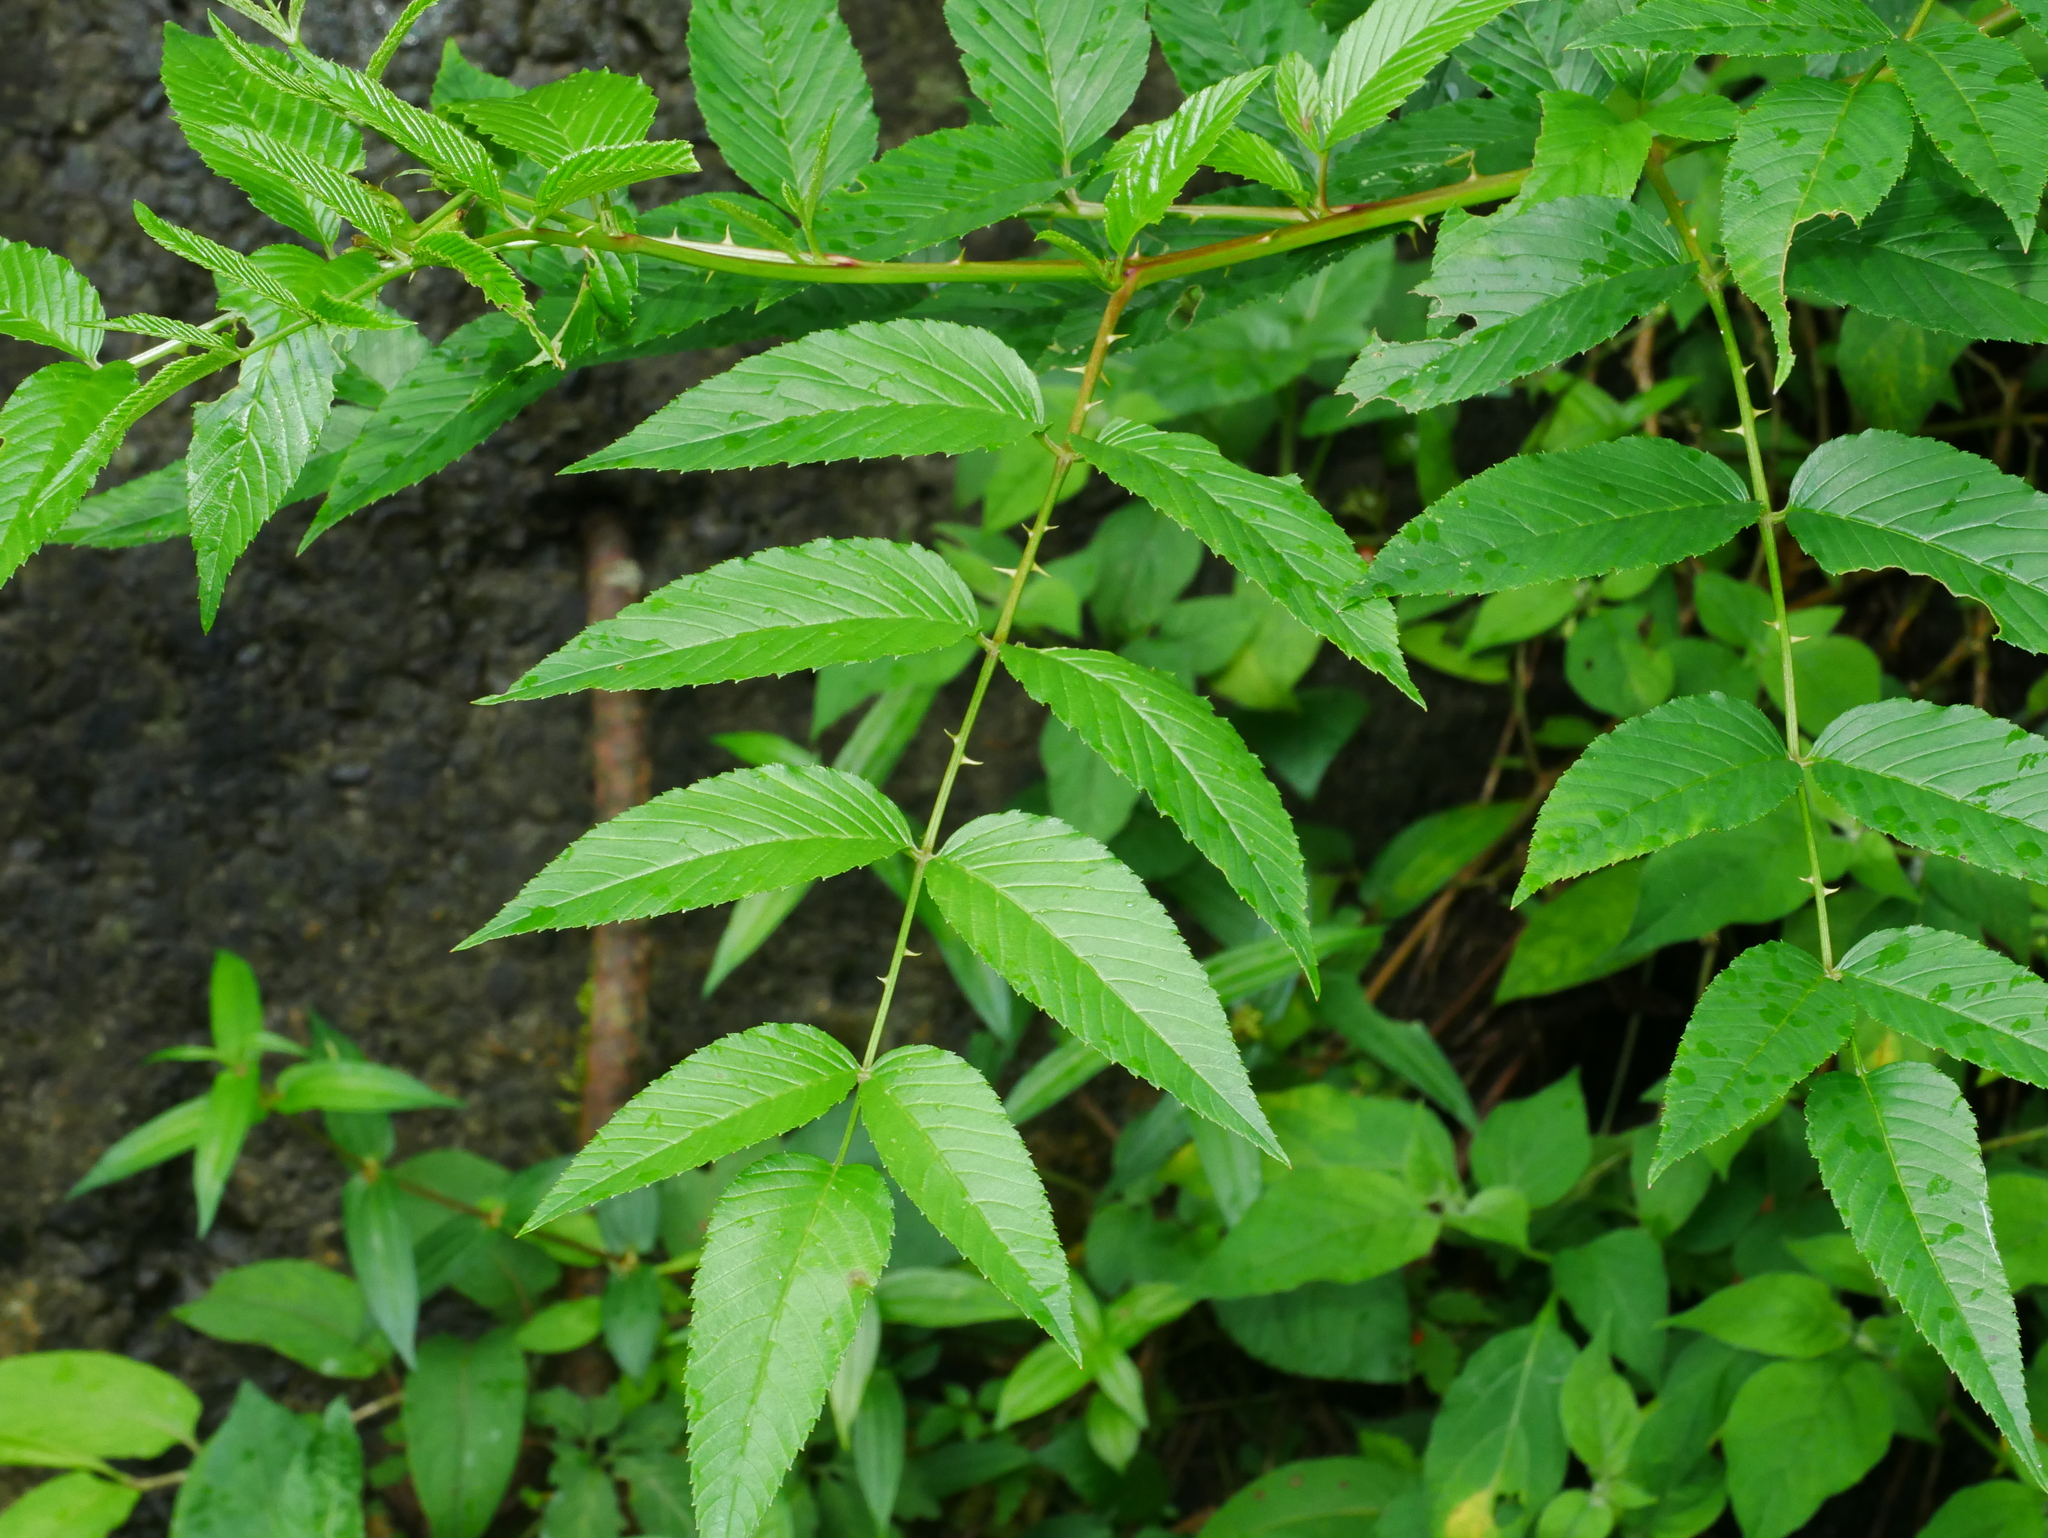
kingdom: Plantae
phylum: Tracheophyta
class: Magnoliopsida
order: Rosales
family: Rosaceae
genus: Rubus
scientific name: Rubus fraxinifolius
